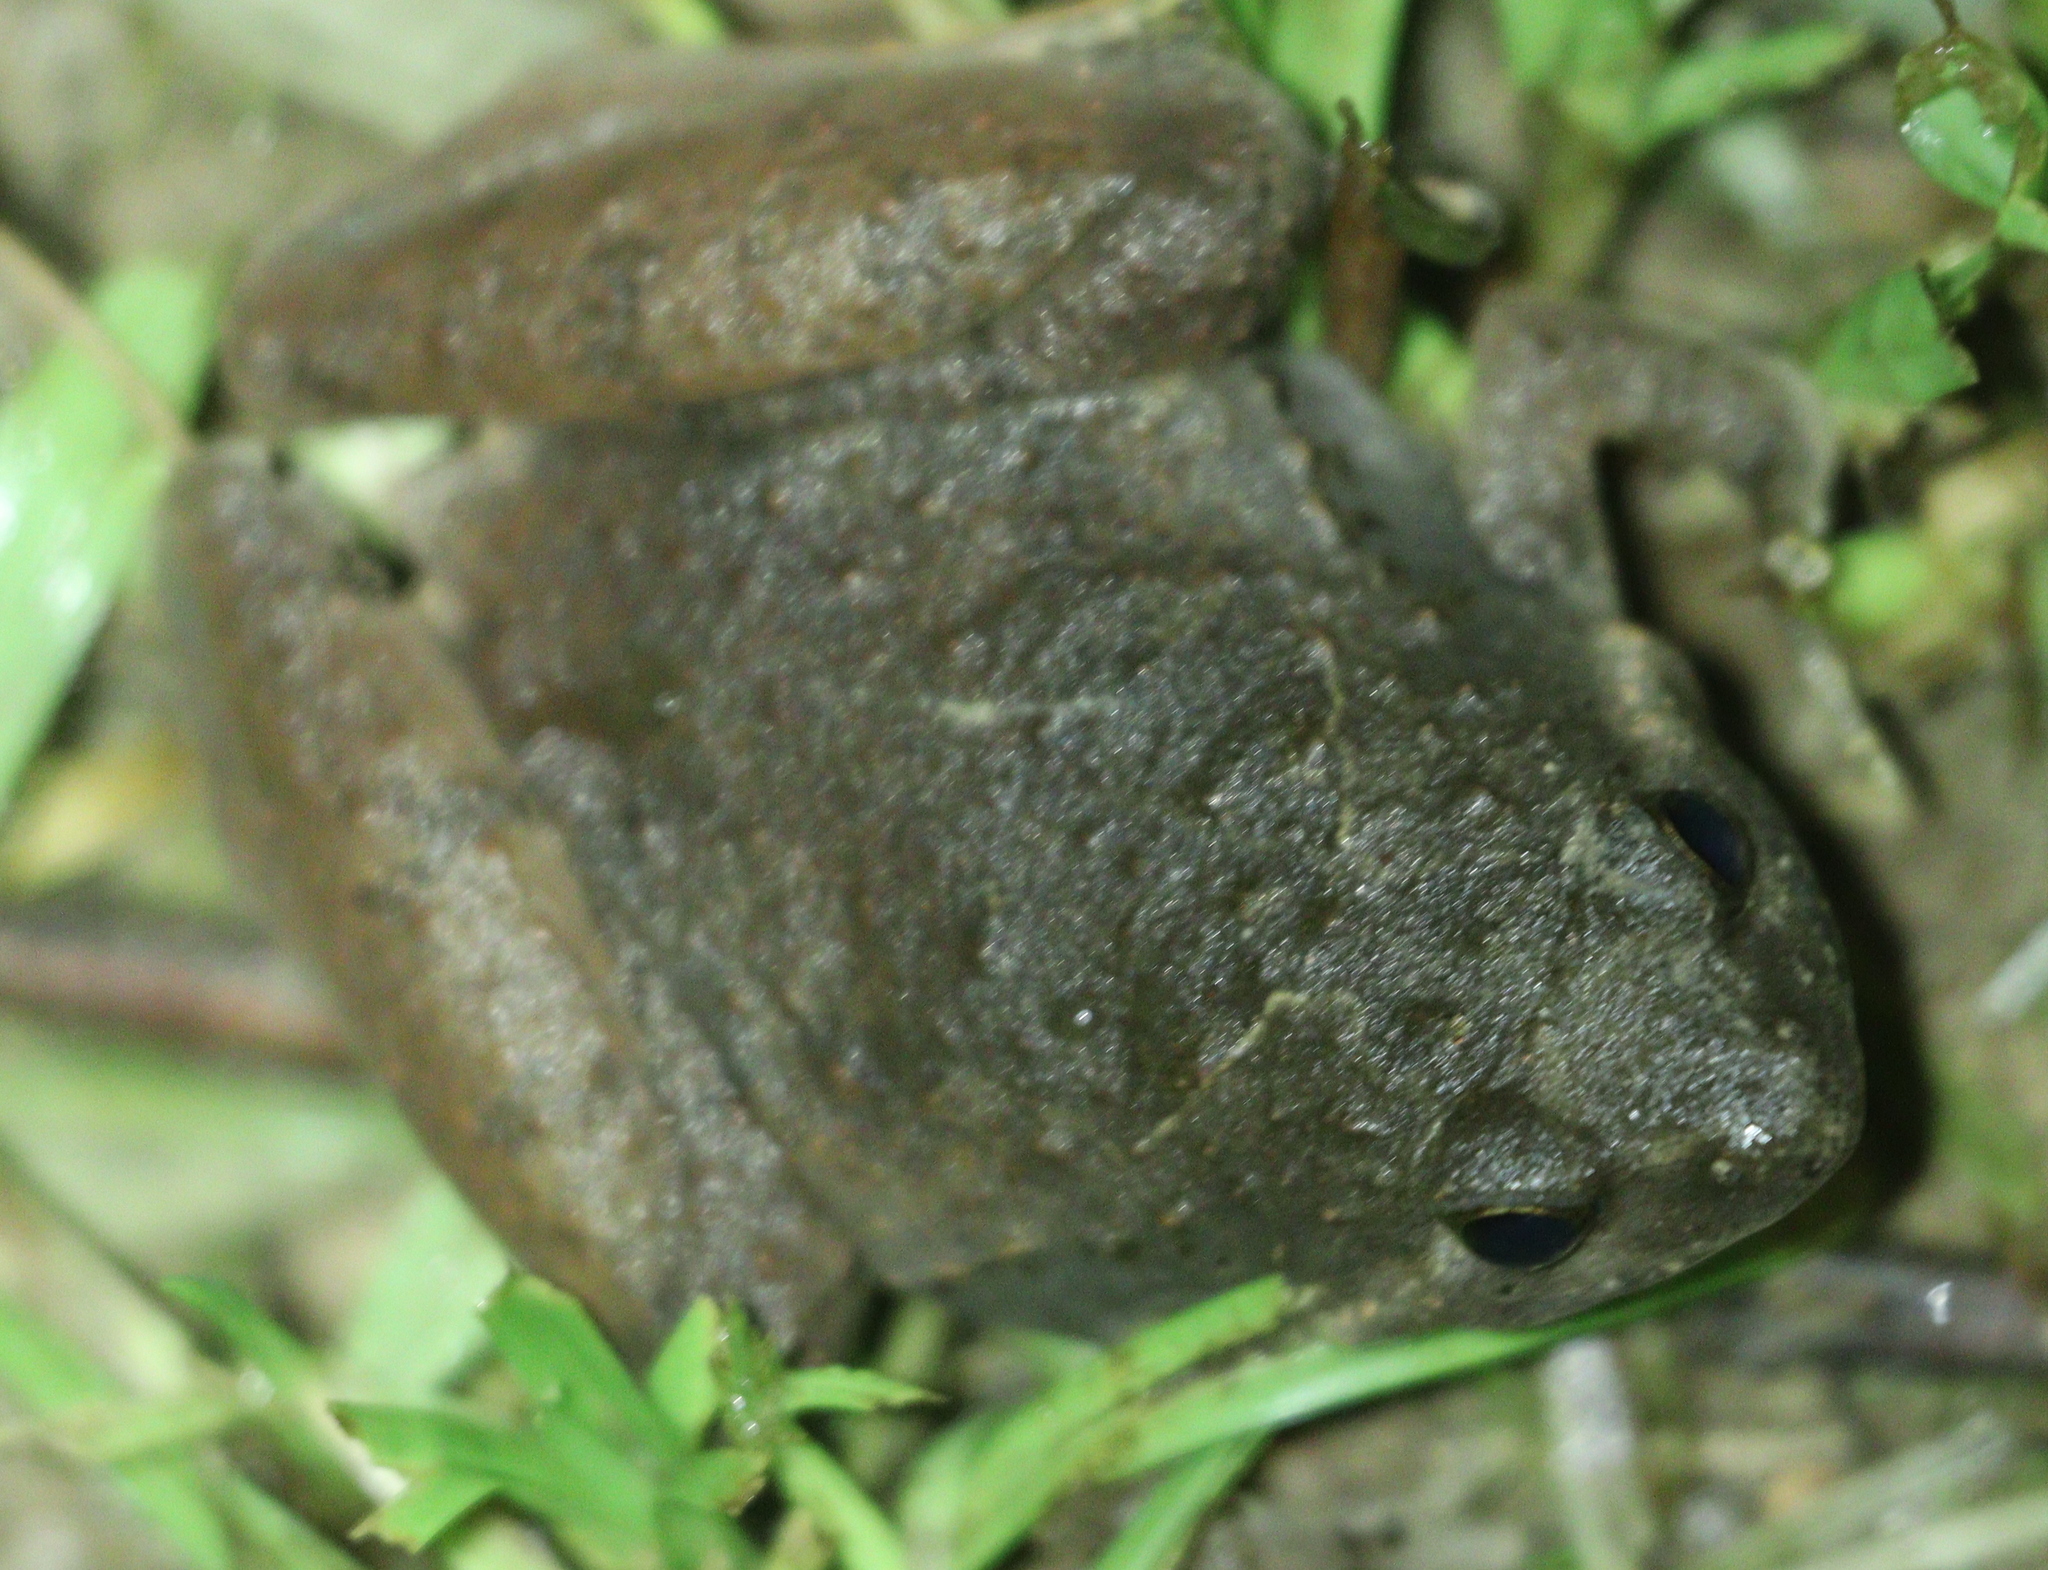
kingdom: Animalia
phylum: Chordata
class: Amphibia
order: Anura
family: Microhylidae
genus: Microhyla
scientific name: Microhyla berdmorei
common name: Berdmore’s narrow-mouthed frog,large pygmy frog
